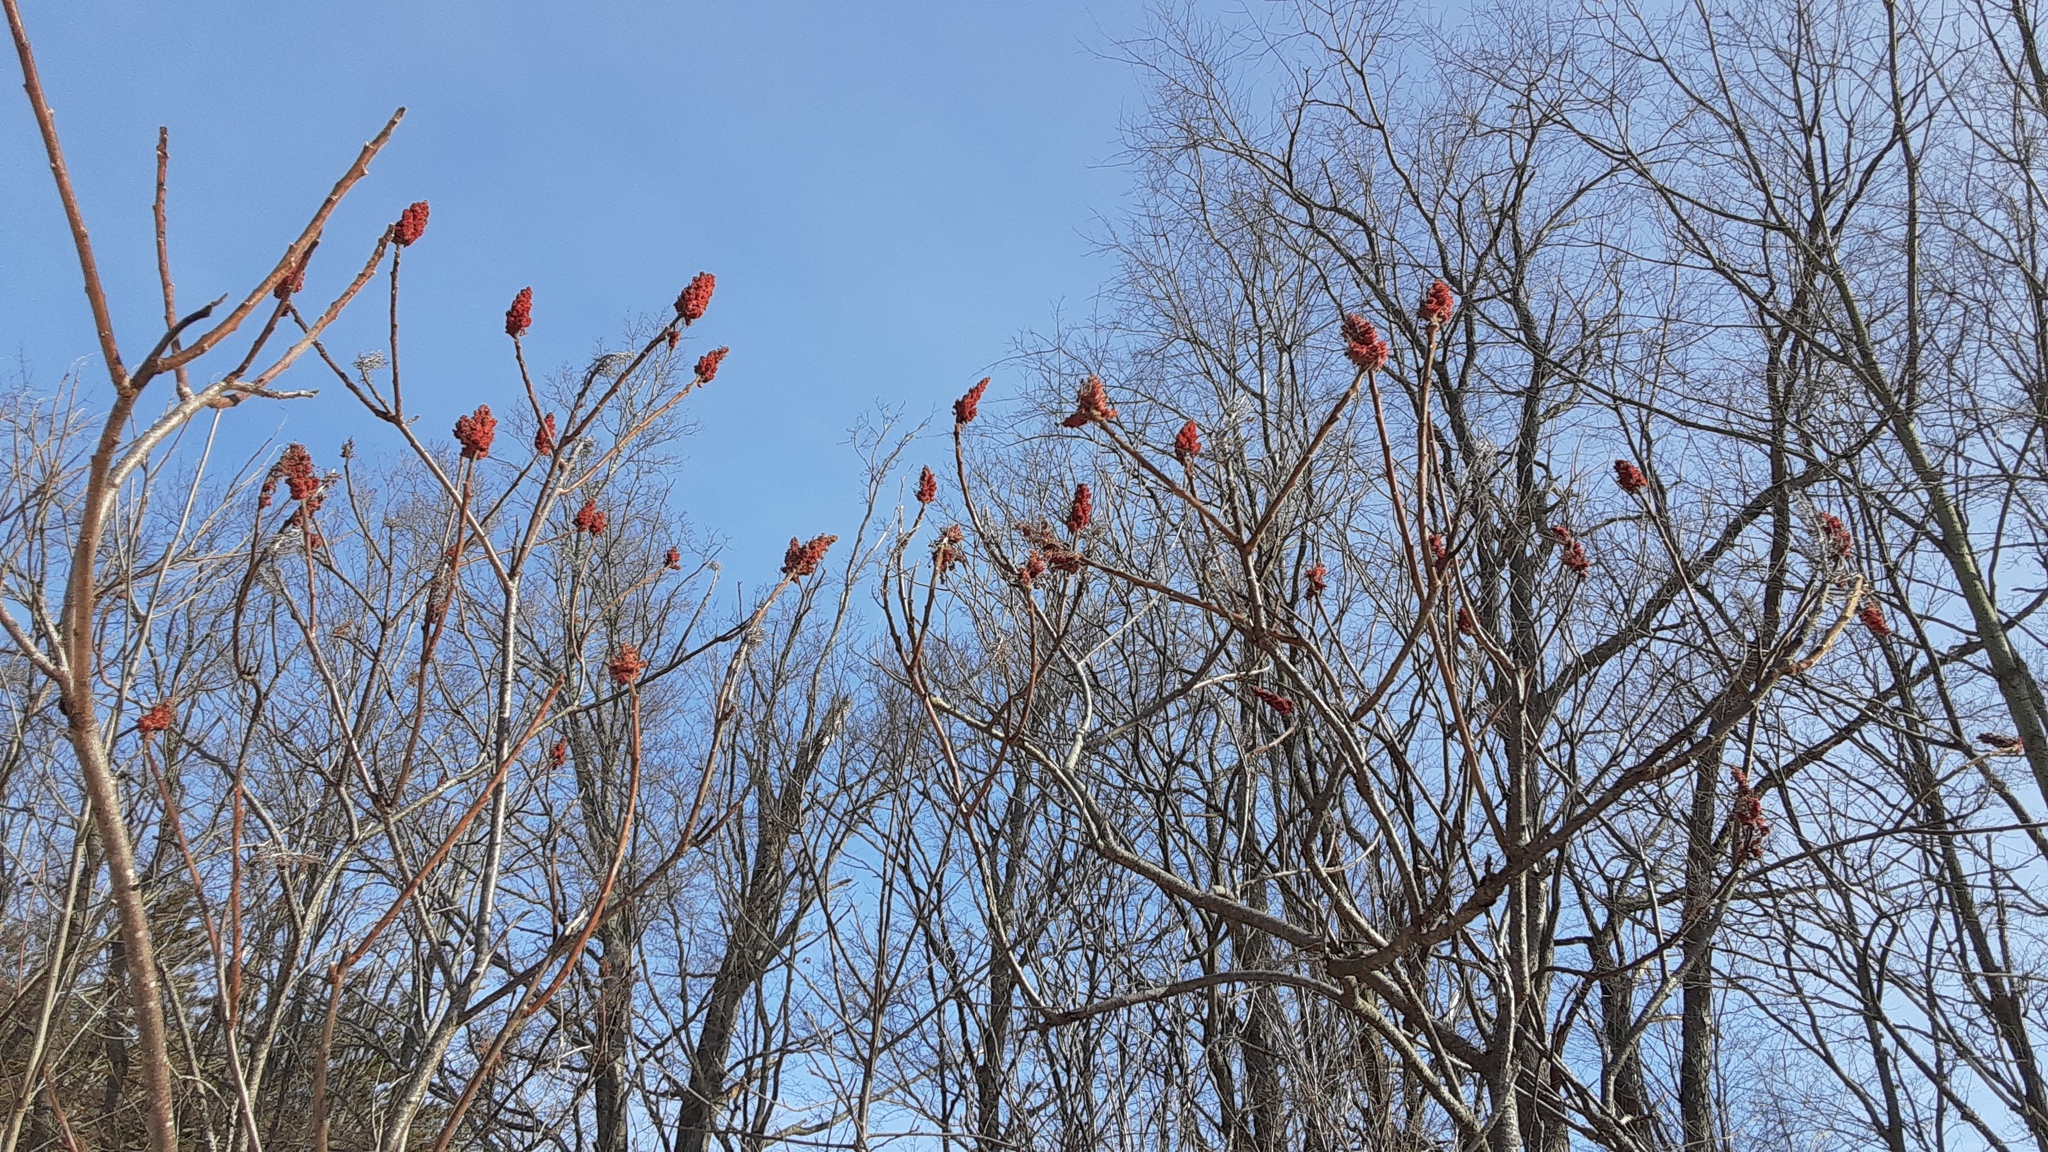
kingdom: Plantae
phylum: Tracheophyta
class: Magnoliopsida
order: Sapindales
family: Anacardiaceae
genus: Rhus
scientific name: Rhus typhina
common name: Staghorn sumac
